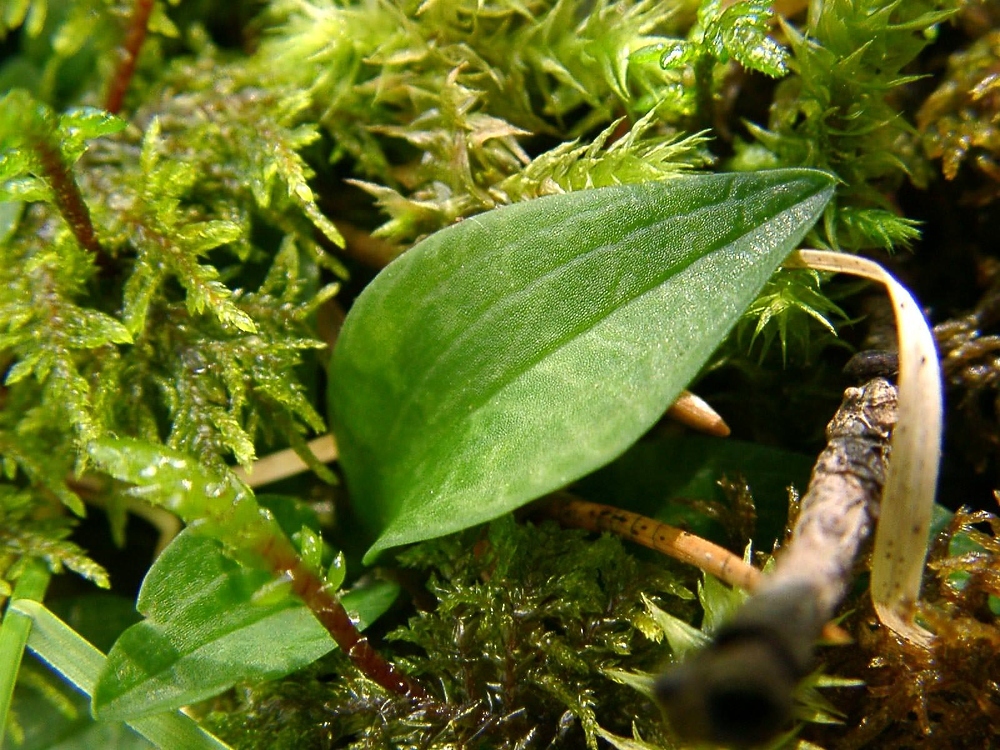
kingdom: Plantae
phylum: Tracheophyta
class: Liliopsida
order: Asparagales
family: Orchidaceae
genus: Goodyera
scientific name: Goodyera repens
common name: Creeping lady's-tresses
